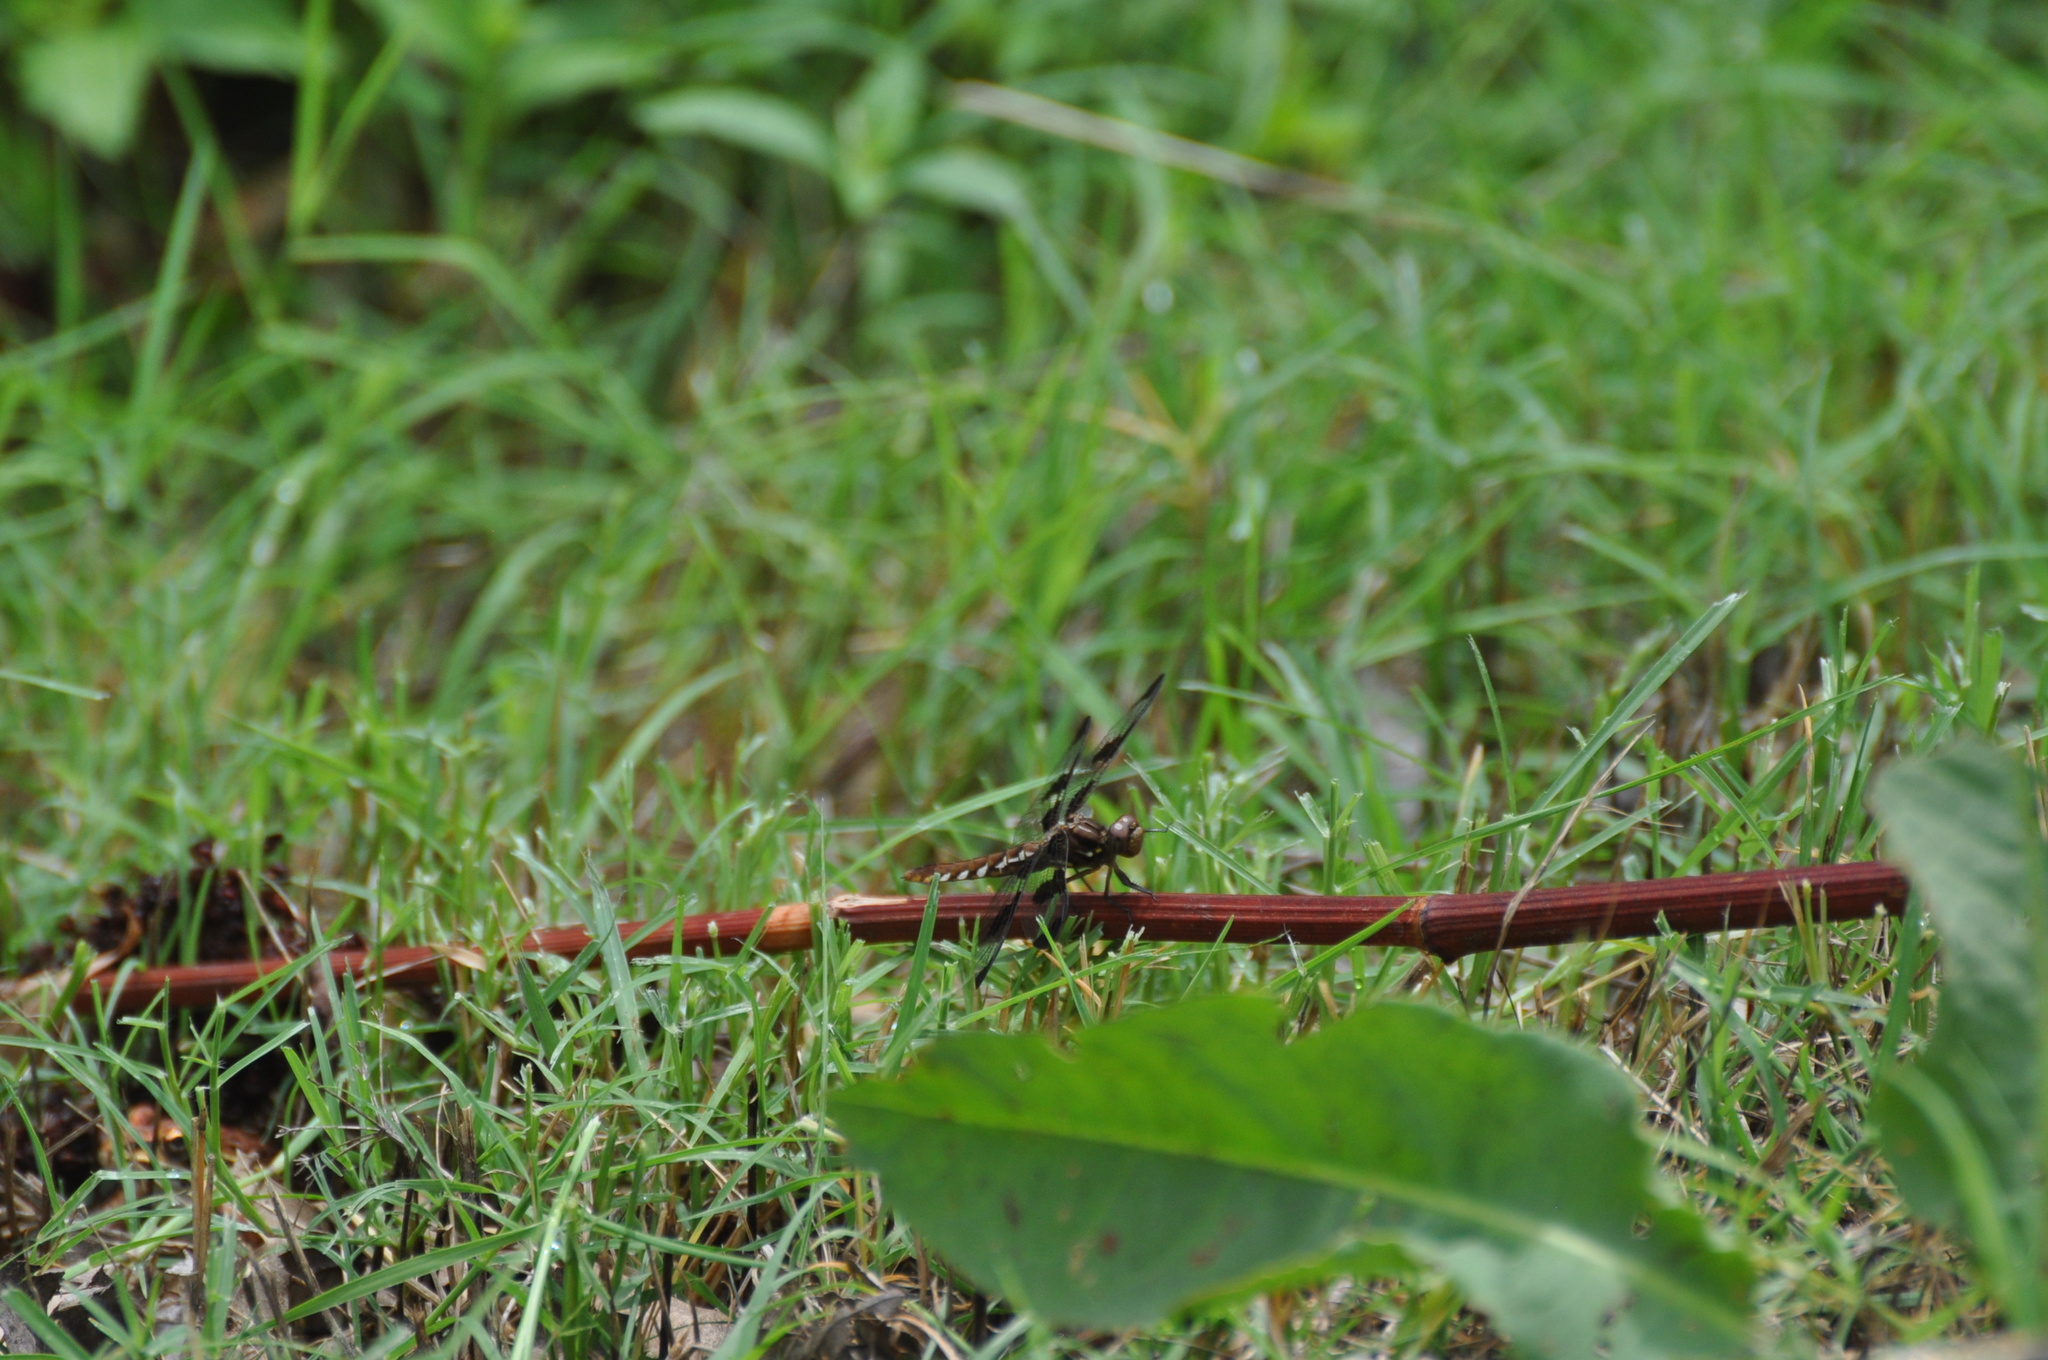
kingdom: Animalia
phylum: Arthropoda
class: Insecta
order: Odonata
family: Libellulidae
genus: Plathemis
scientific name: Plathemis lydia
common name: Common whitetail
